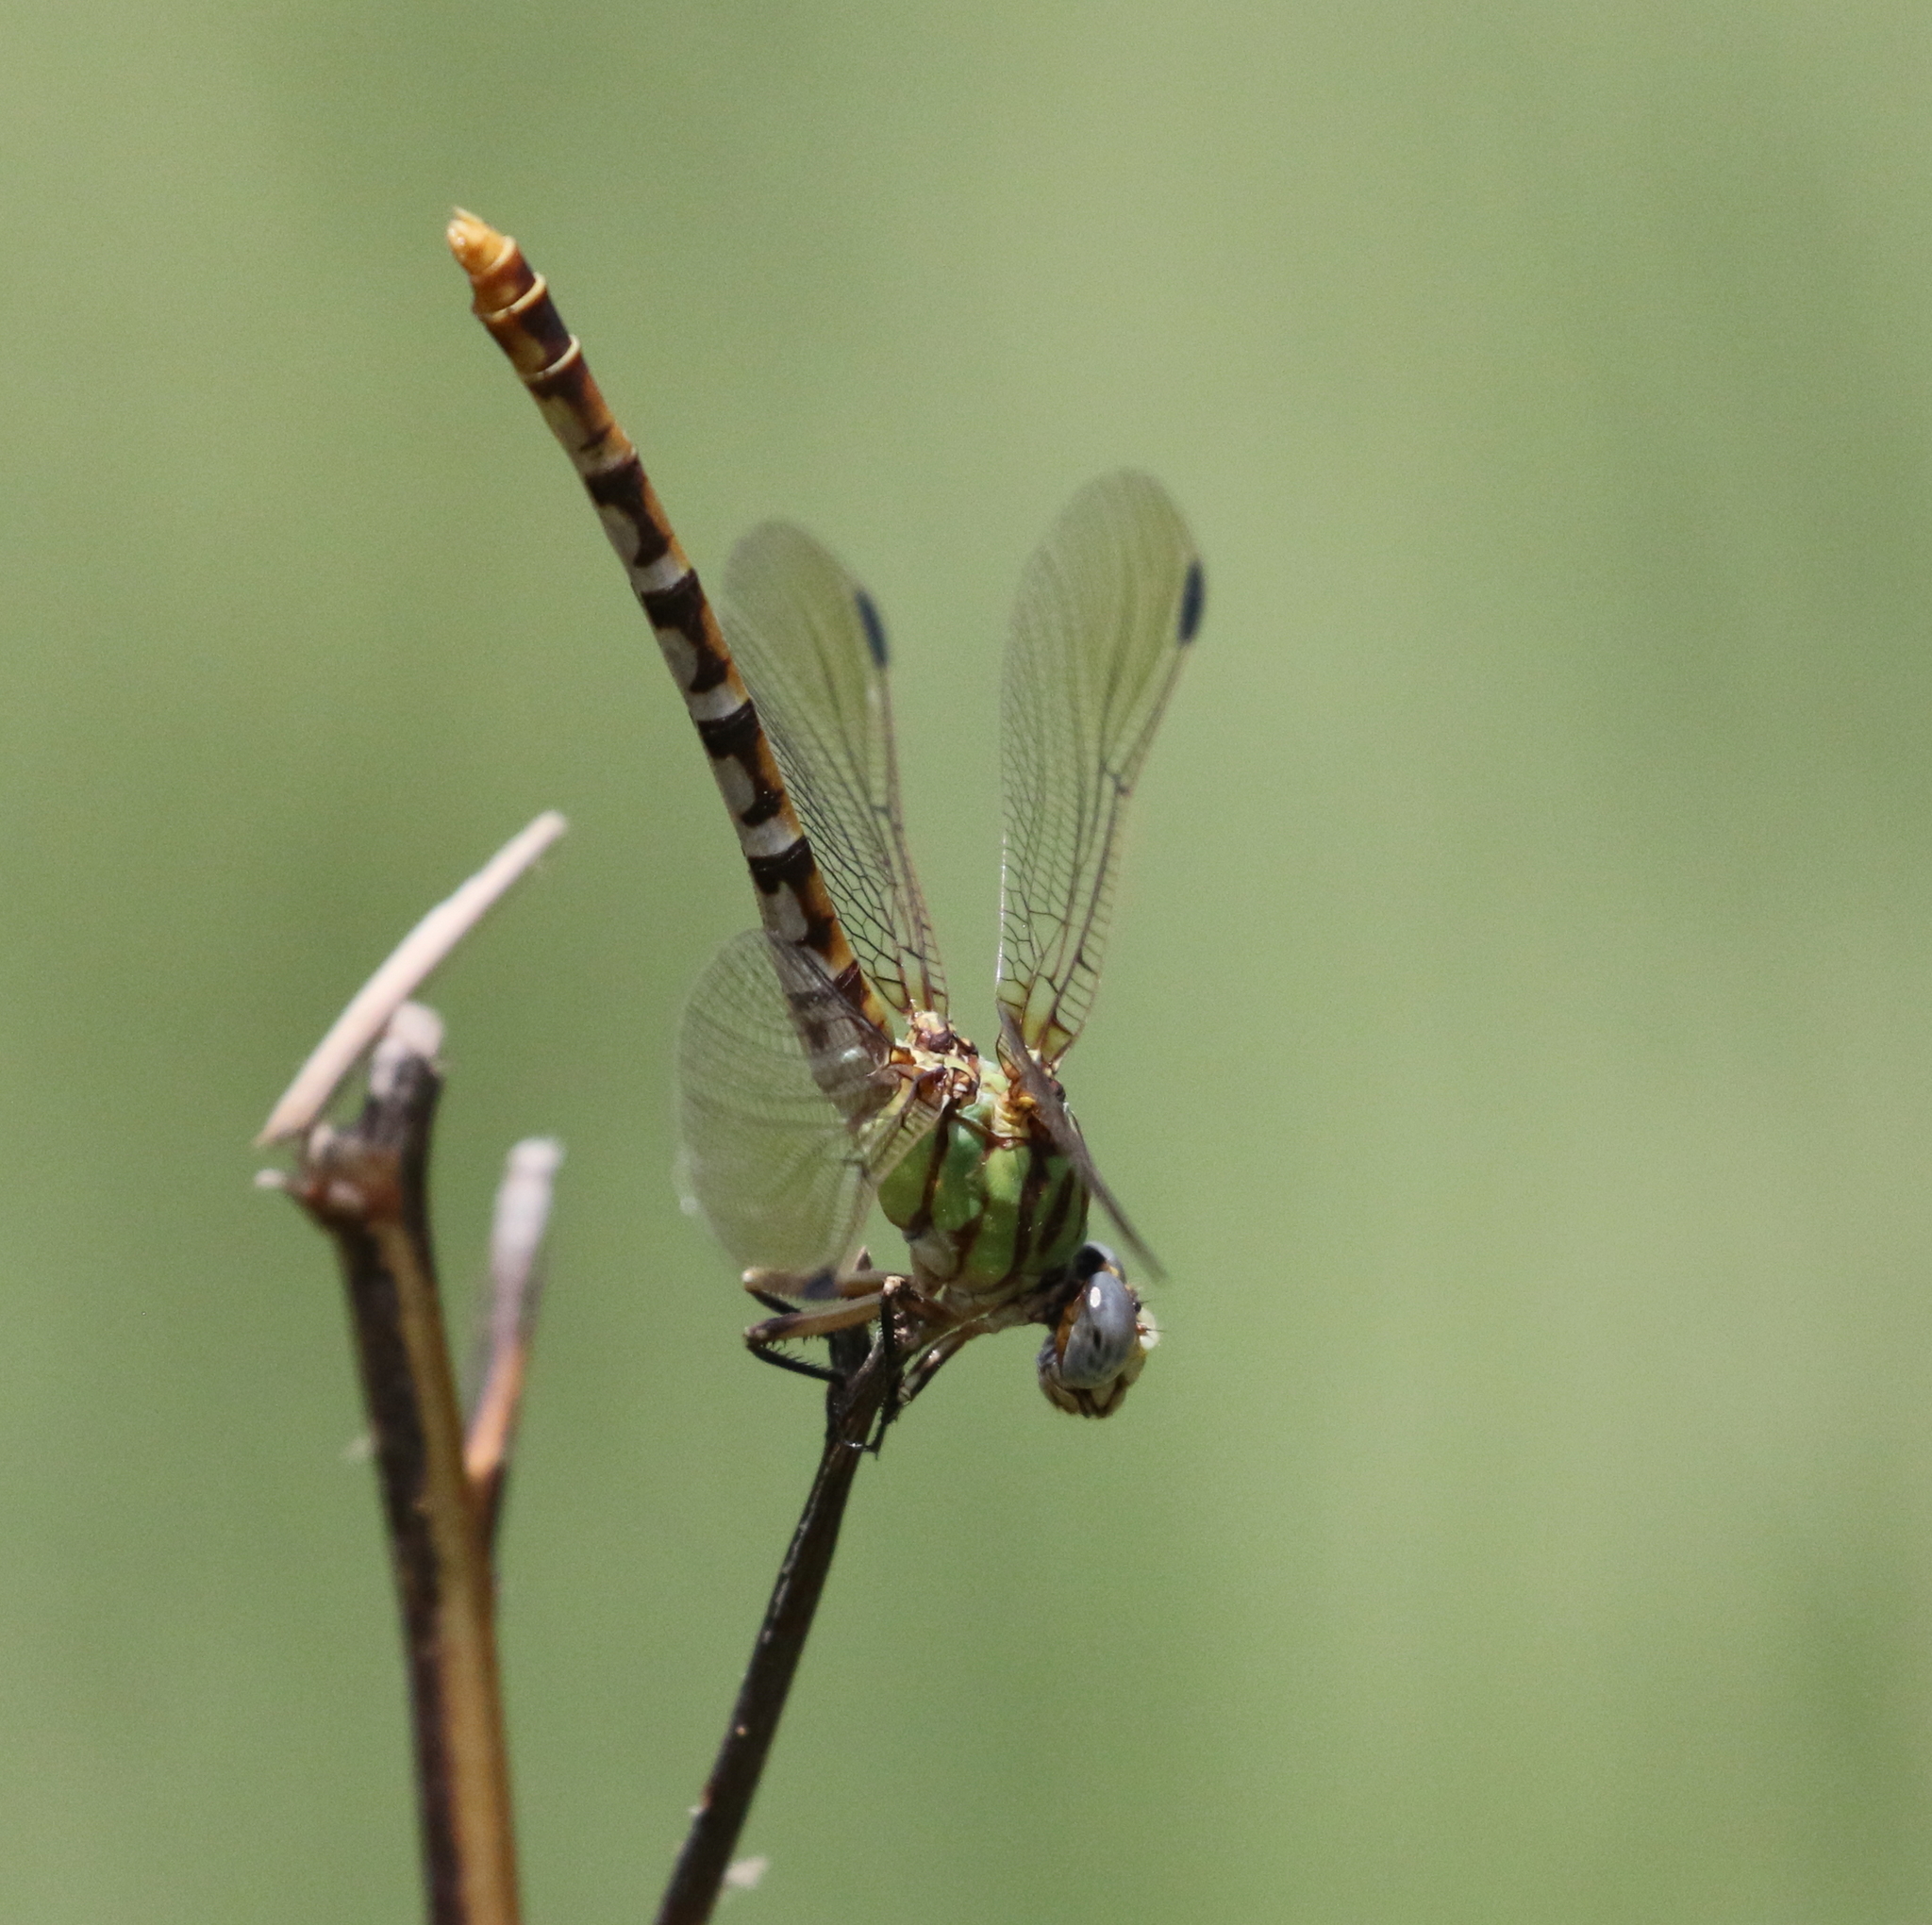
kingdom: Animalia
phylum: Arthropoda
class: Insecta
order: Odonata
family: Gomphidae
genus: Erpetogomphus
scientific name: Erpetogomphus designatus
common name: Eastern ringtail
